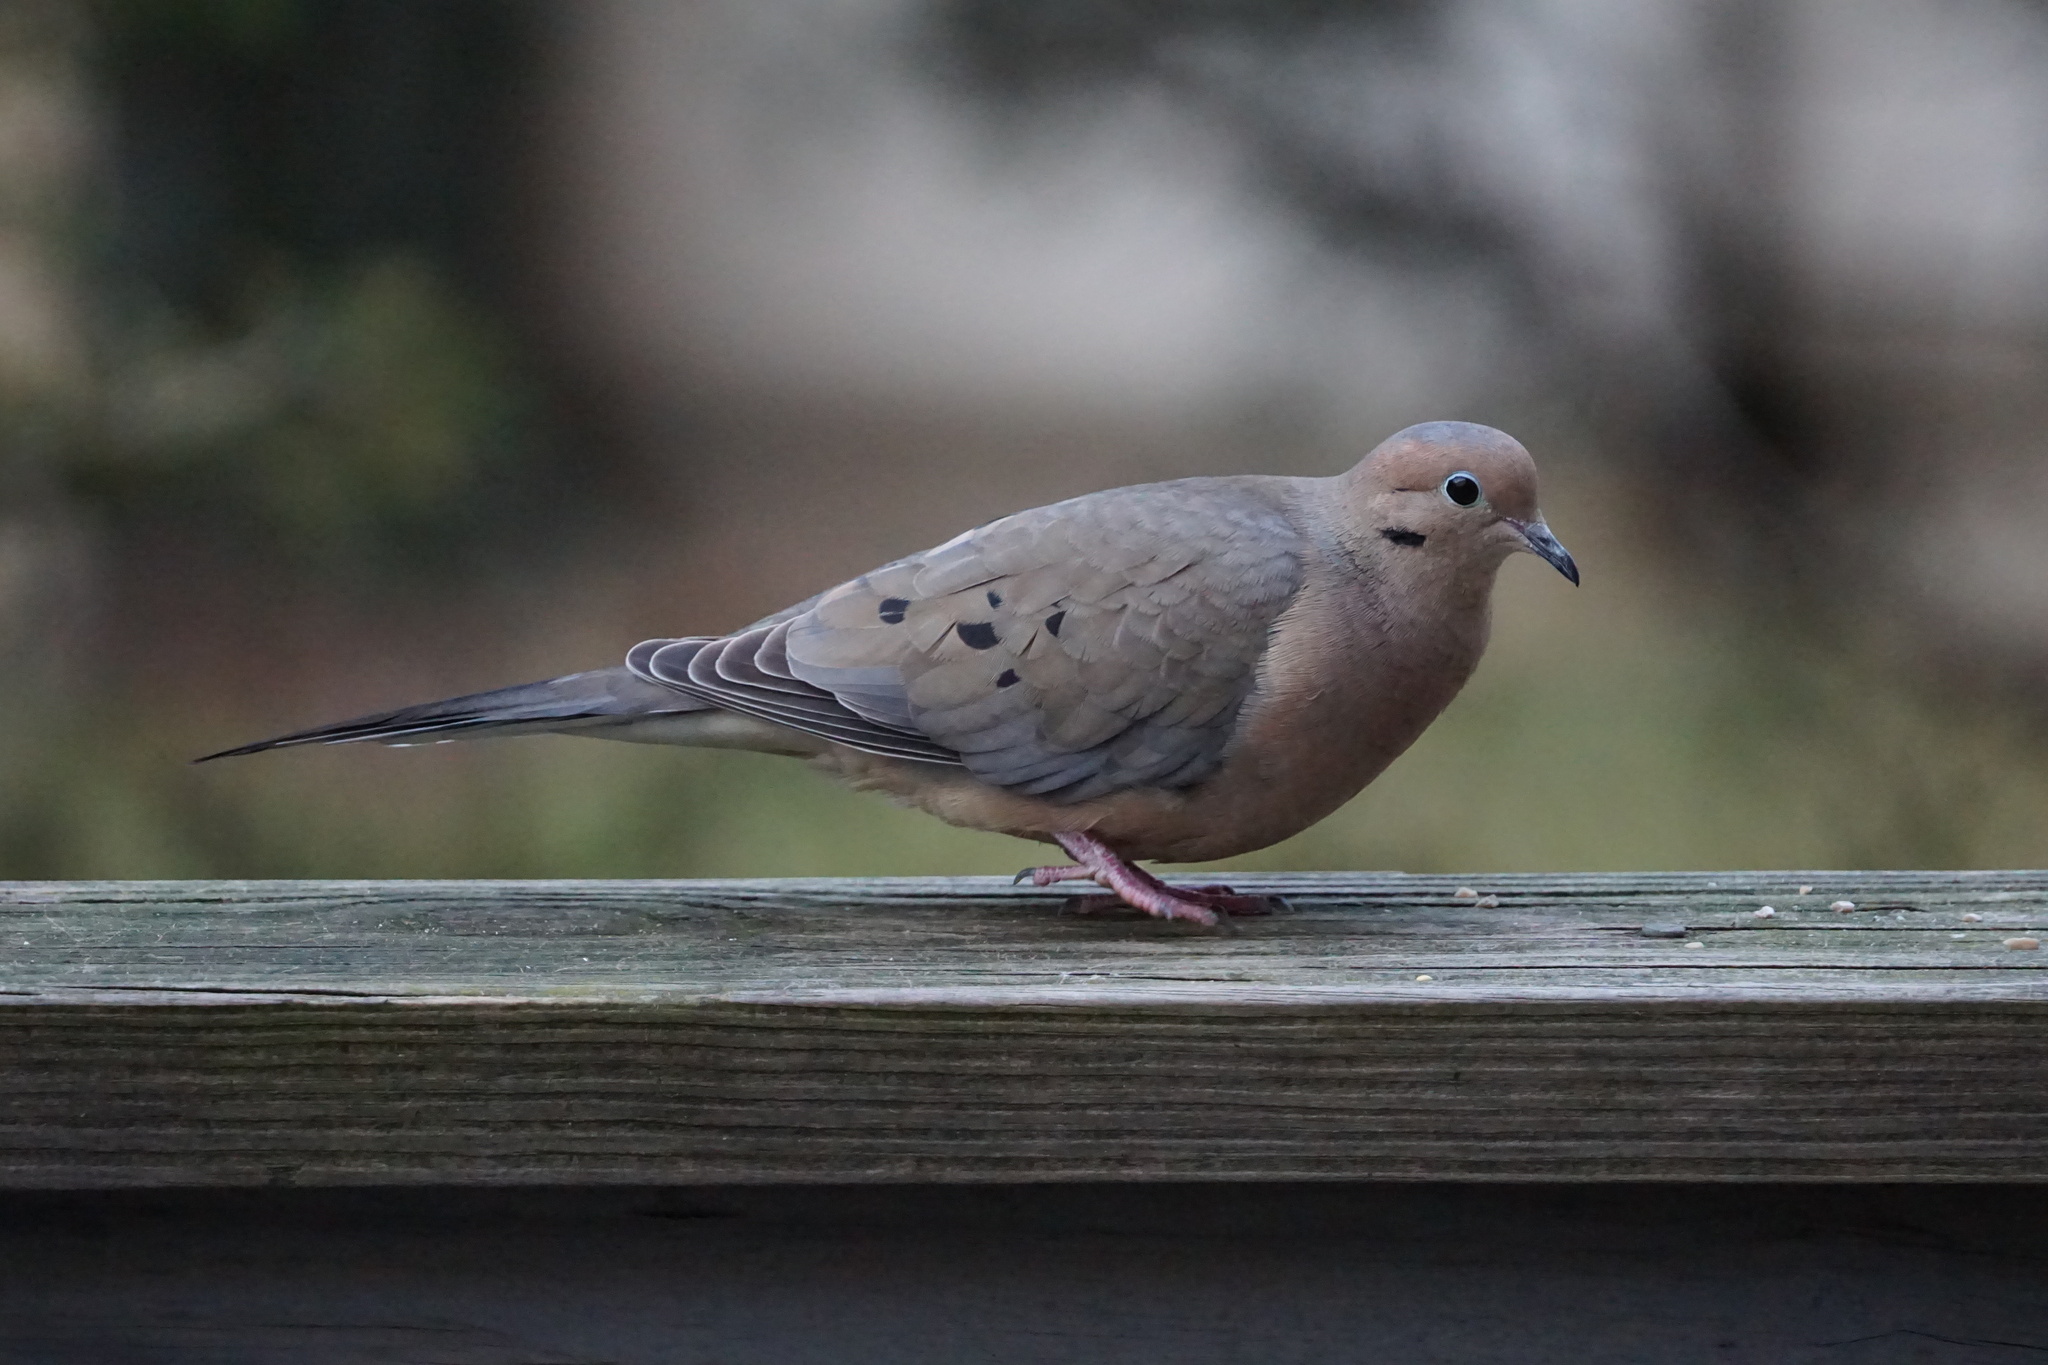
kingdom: Animalia
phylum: Chordata
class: Aves
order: Columbiformes
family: Columbidae
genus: Zenaida
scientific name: Zenaida macroura
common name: Mourning dove
